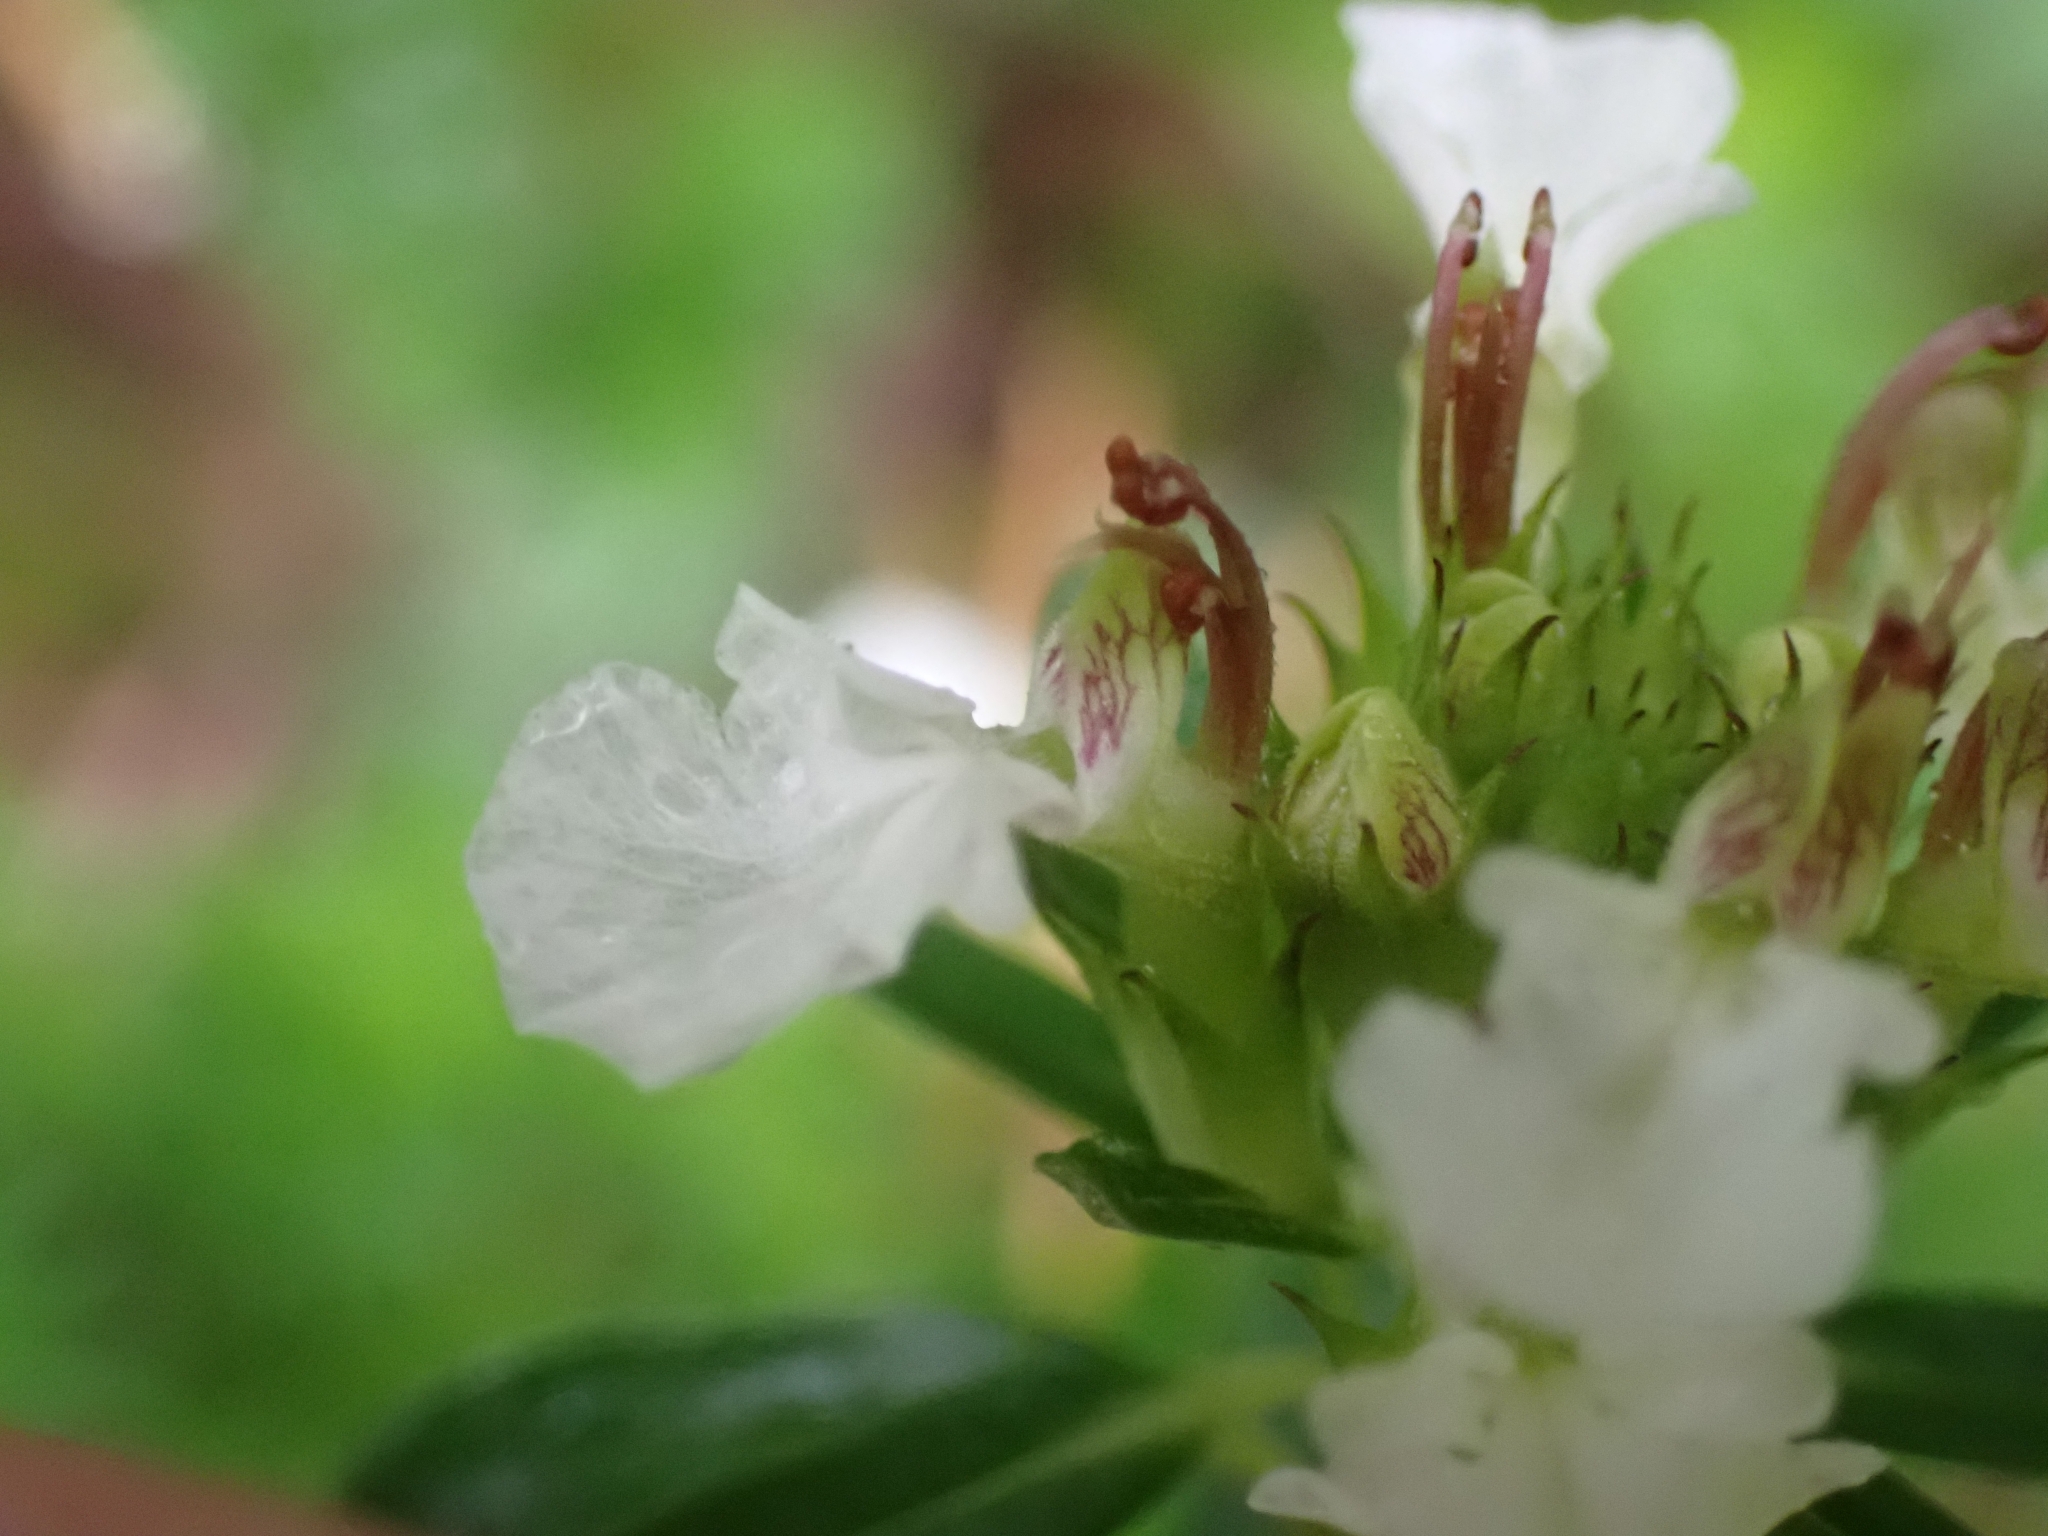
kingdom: Plantae
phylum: Tracheophyta
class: Magnoliopsida
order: Lamiales
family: Lamiaceae
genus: Teucrium
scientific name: Teucrium montanum
